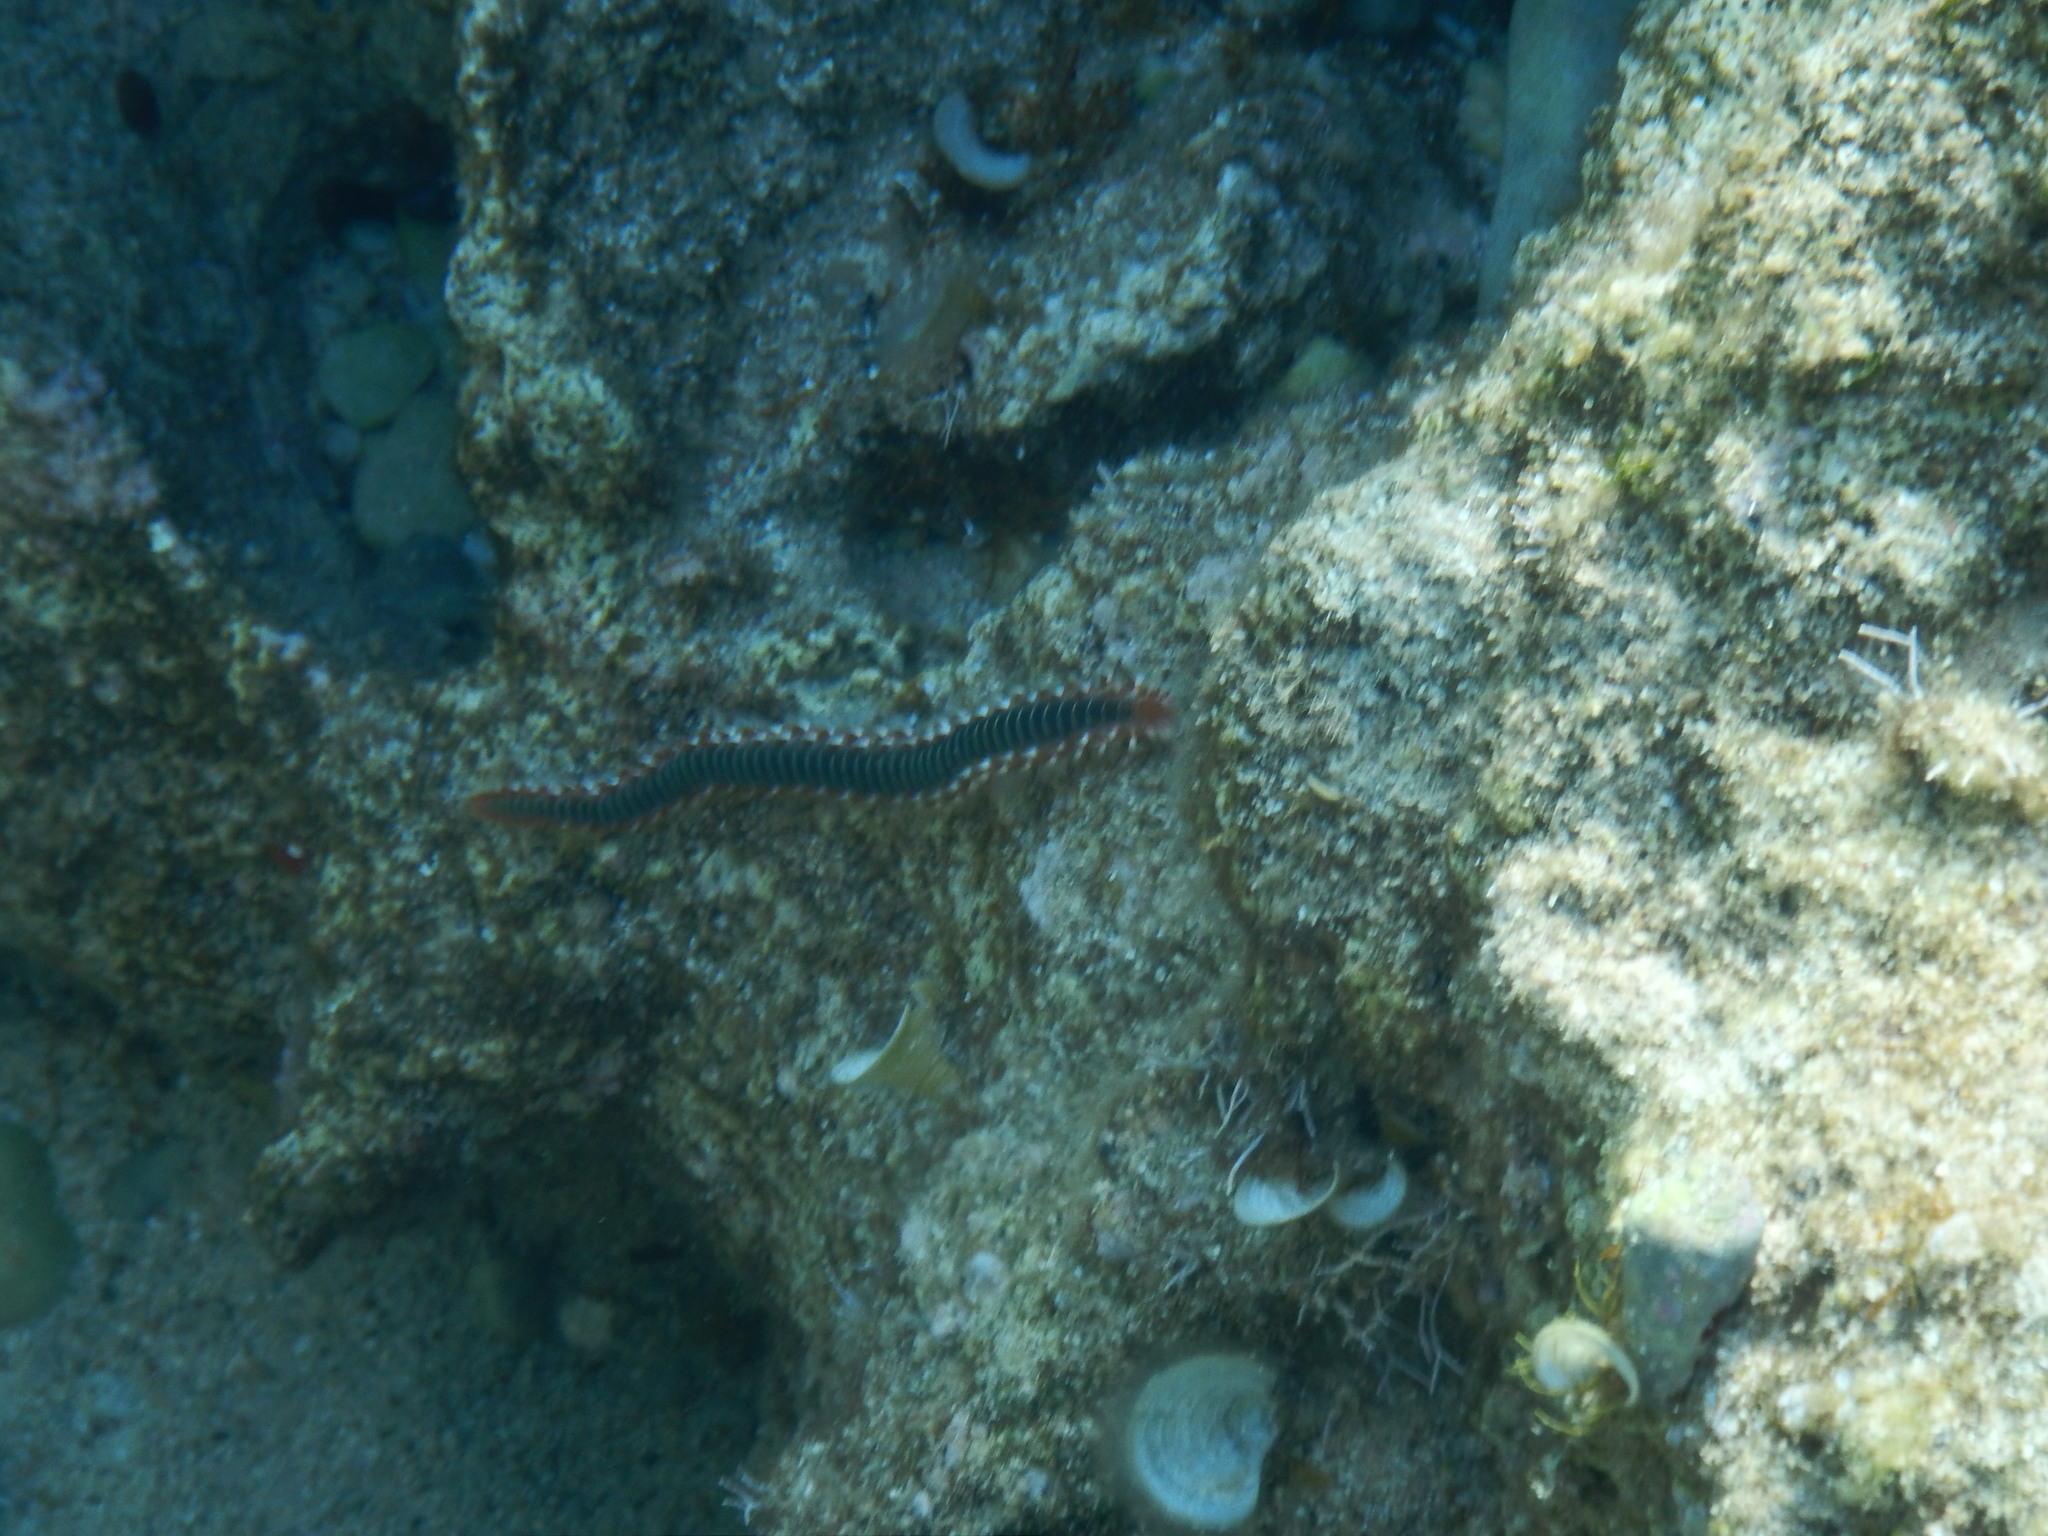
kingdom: Animalia
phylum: Annelida
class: Polychaeta
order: Amphinomida
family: Amphinomidae
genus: Hermodice
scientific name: Hermodice carunculata
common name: Bearded fireworm
